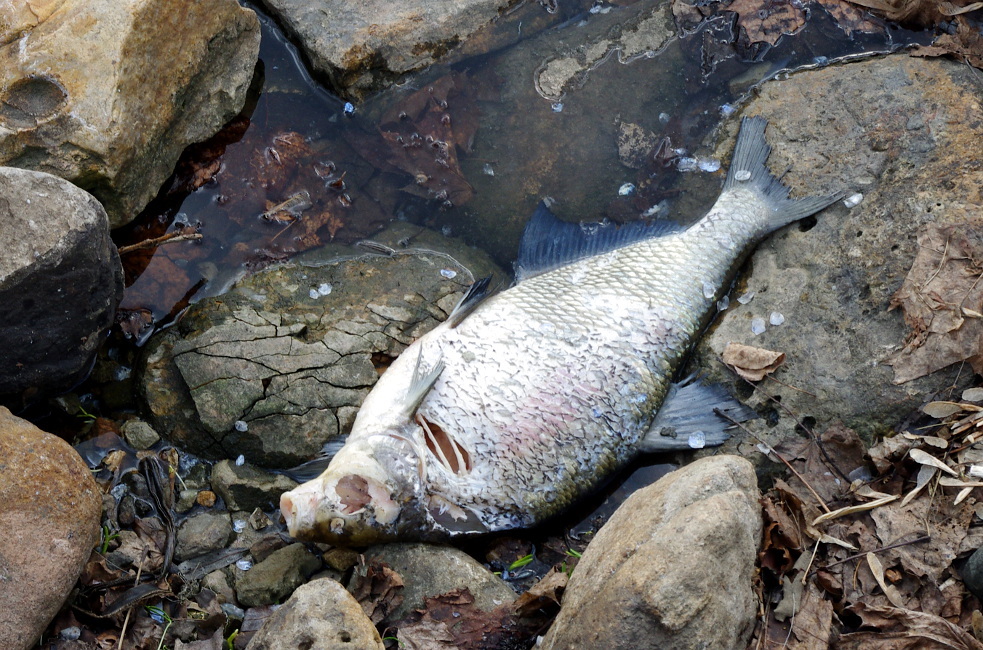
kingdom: Animalia
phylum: Chordata
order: Cypriniformes
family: Cyprinidae
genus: Abramis
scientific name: Abramis brama
